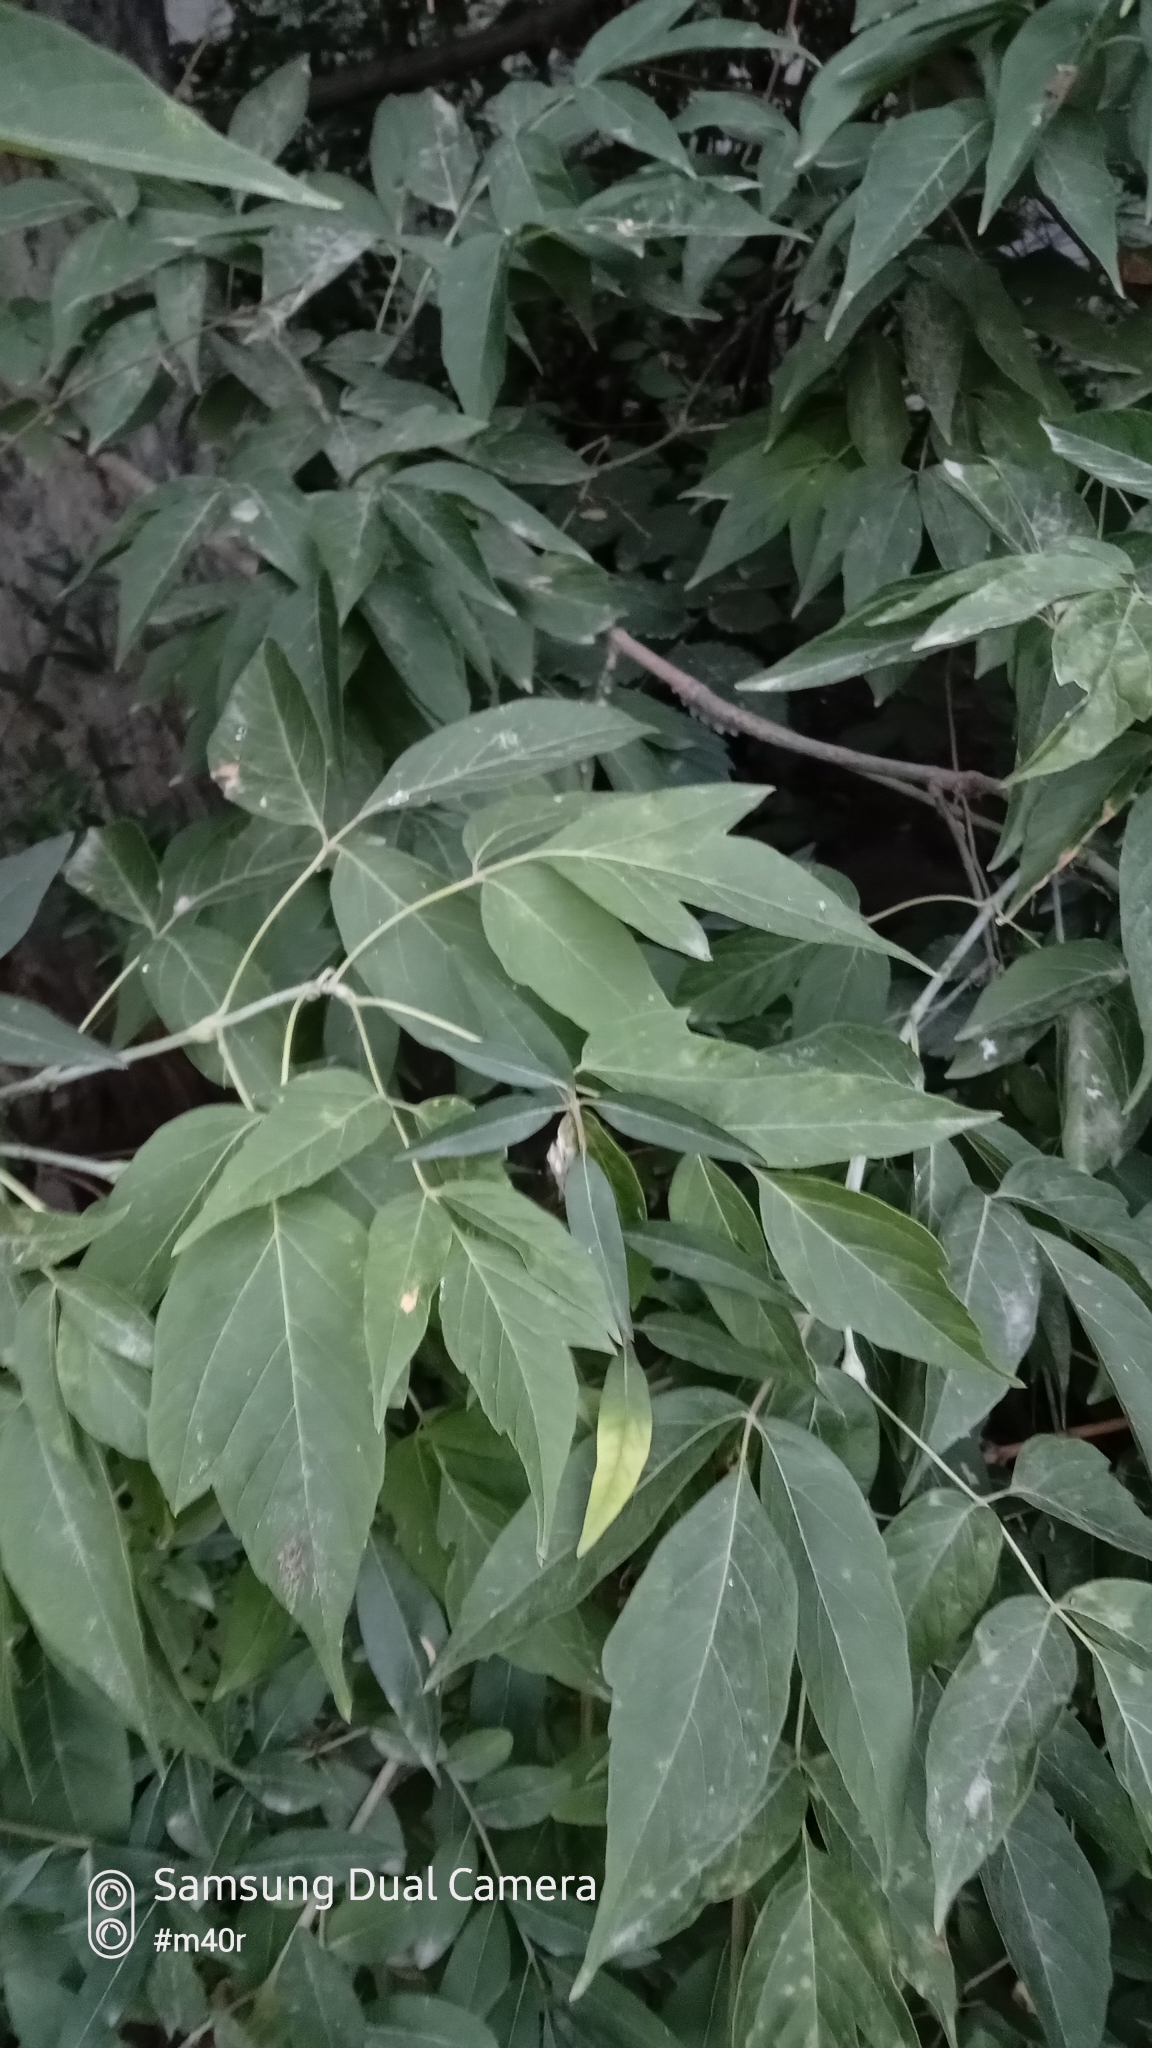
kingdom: Plantae
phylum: Tracheophyta
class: Magnoliopsida
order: Sapindales
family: Sapindaceae
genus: Acer
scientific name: Acer negundo
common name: Ashleaf maple
